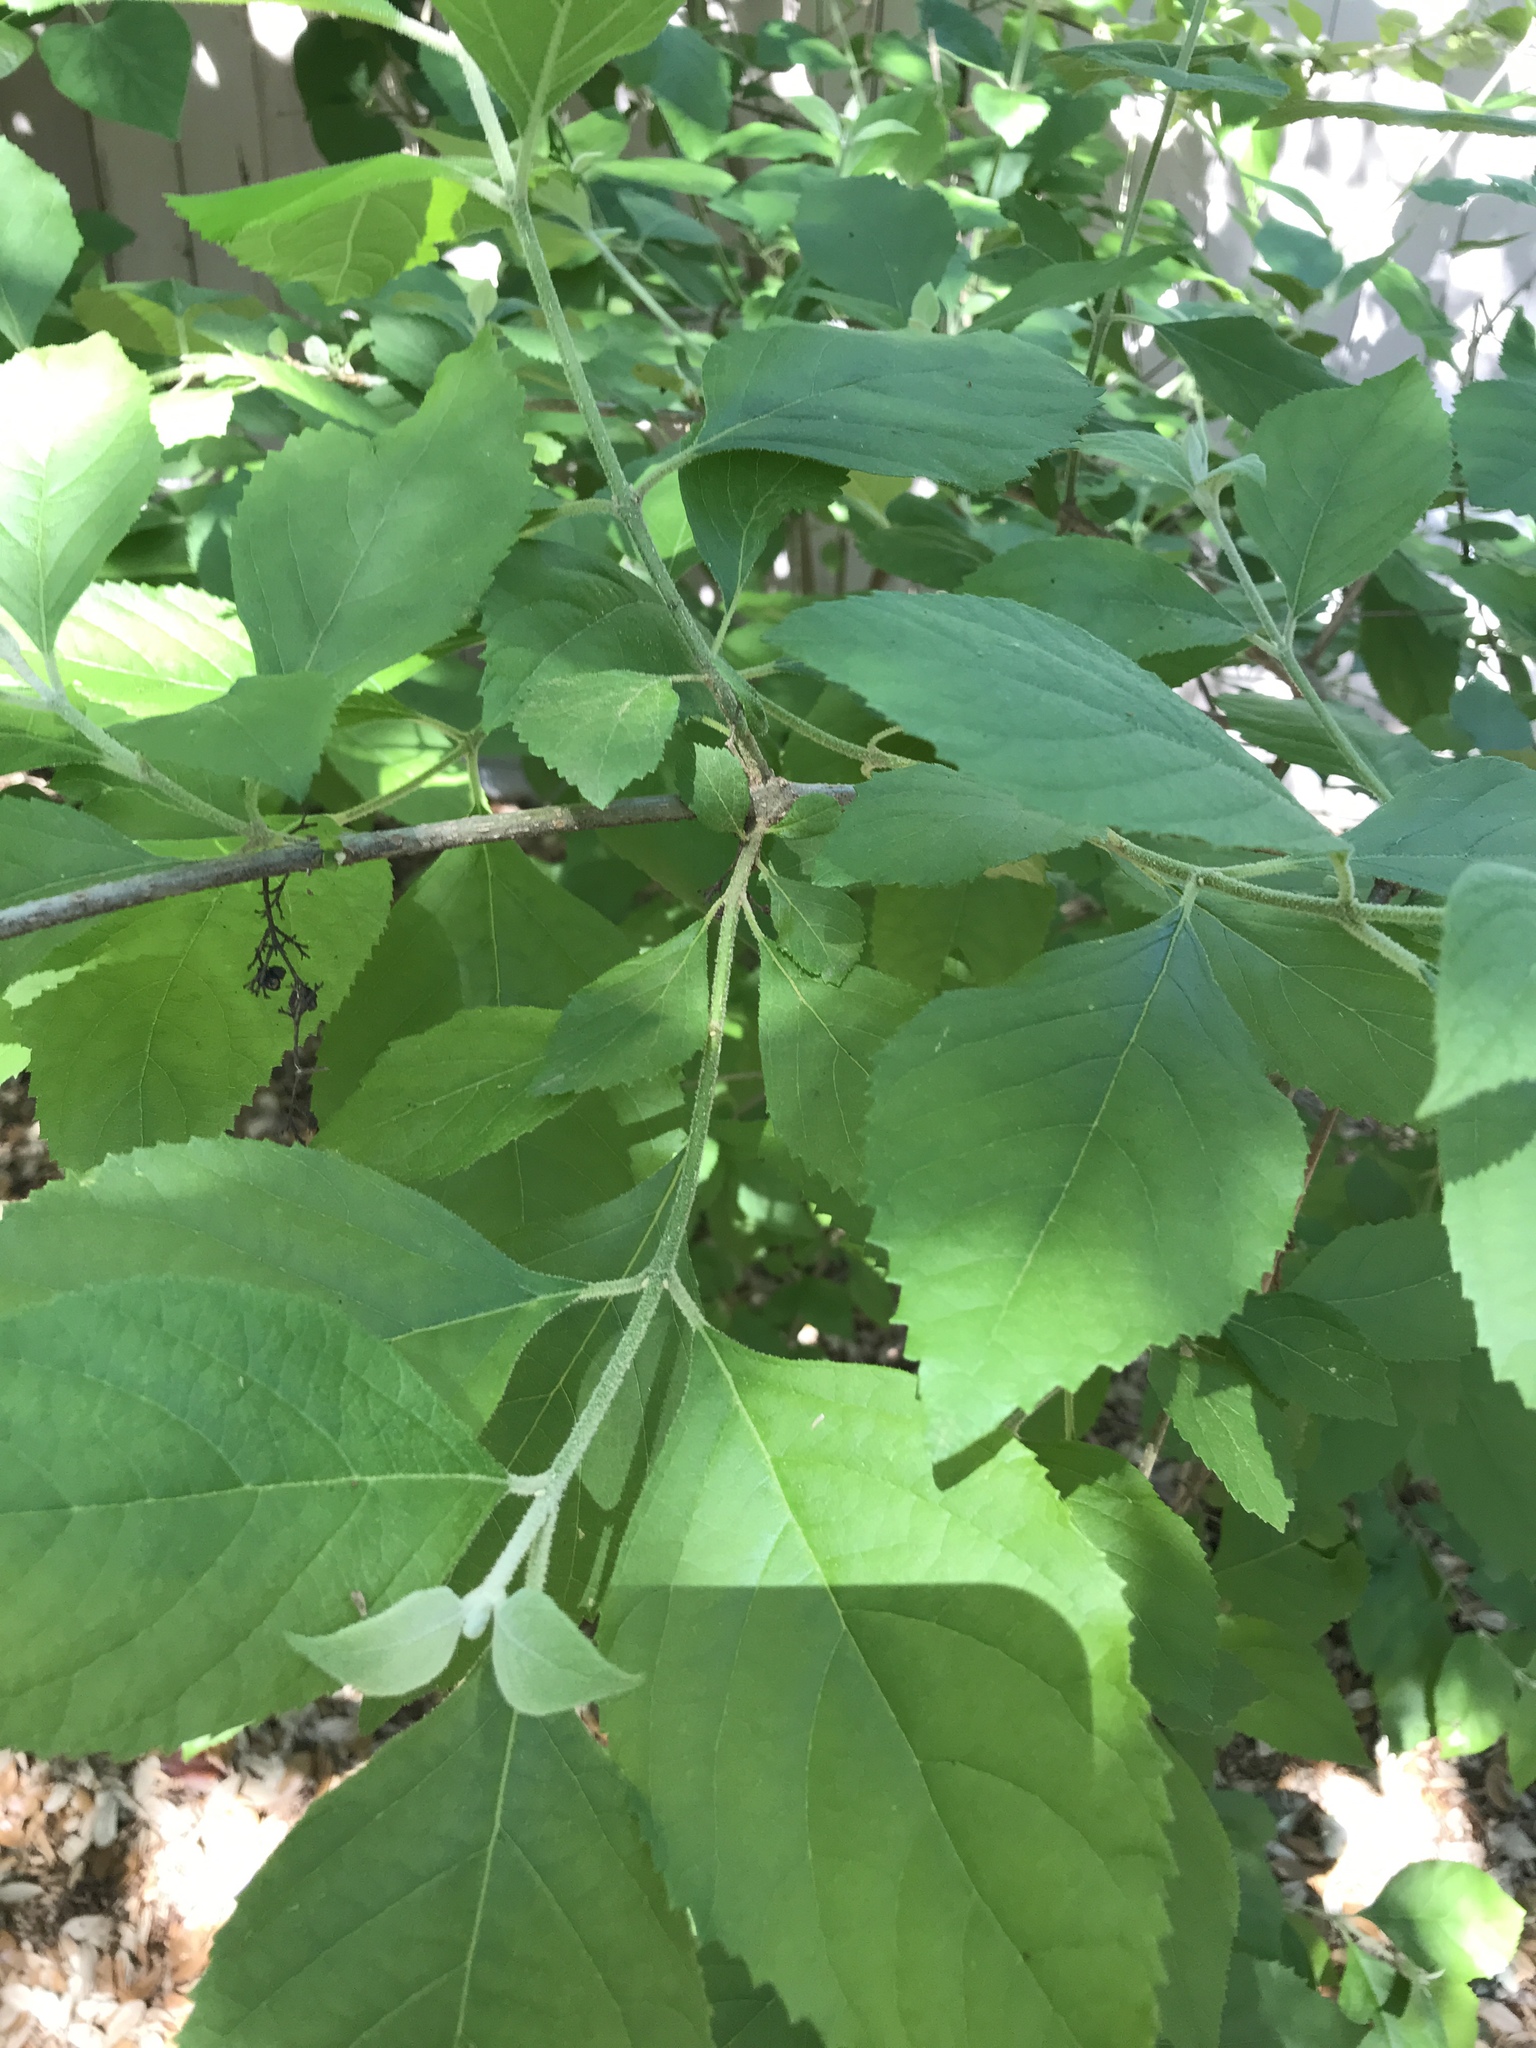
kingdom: Plantae
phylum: Tracheophyta
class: Magnoliopsida
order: Lamiales
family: Lamiaceae
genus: Callicarpa
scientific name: Callicarpa americana
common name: American beautyberry
